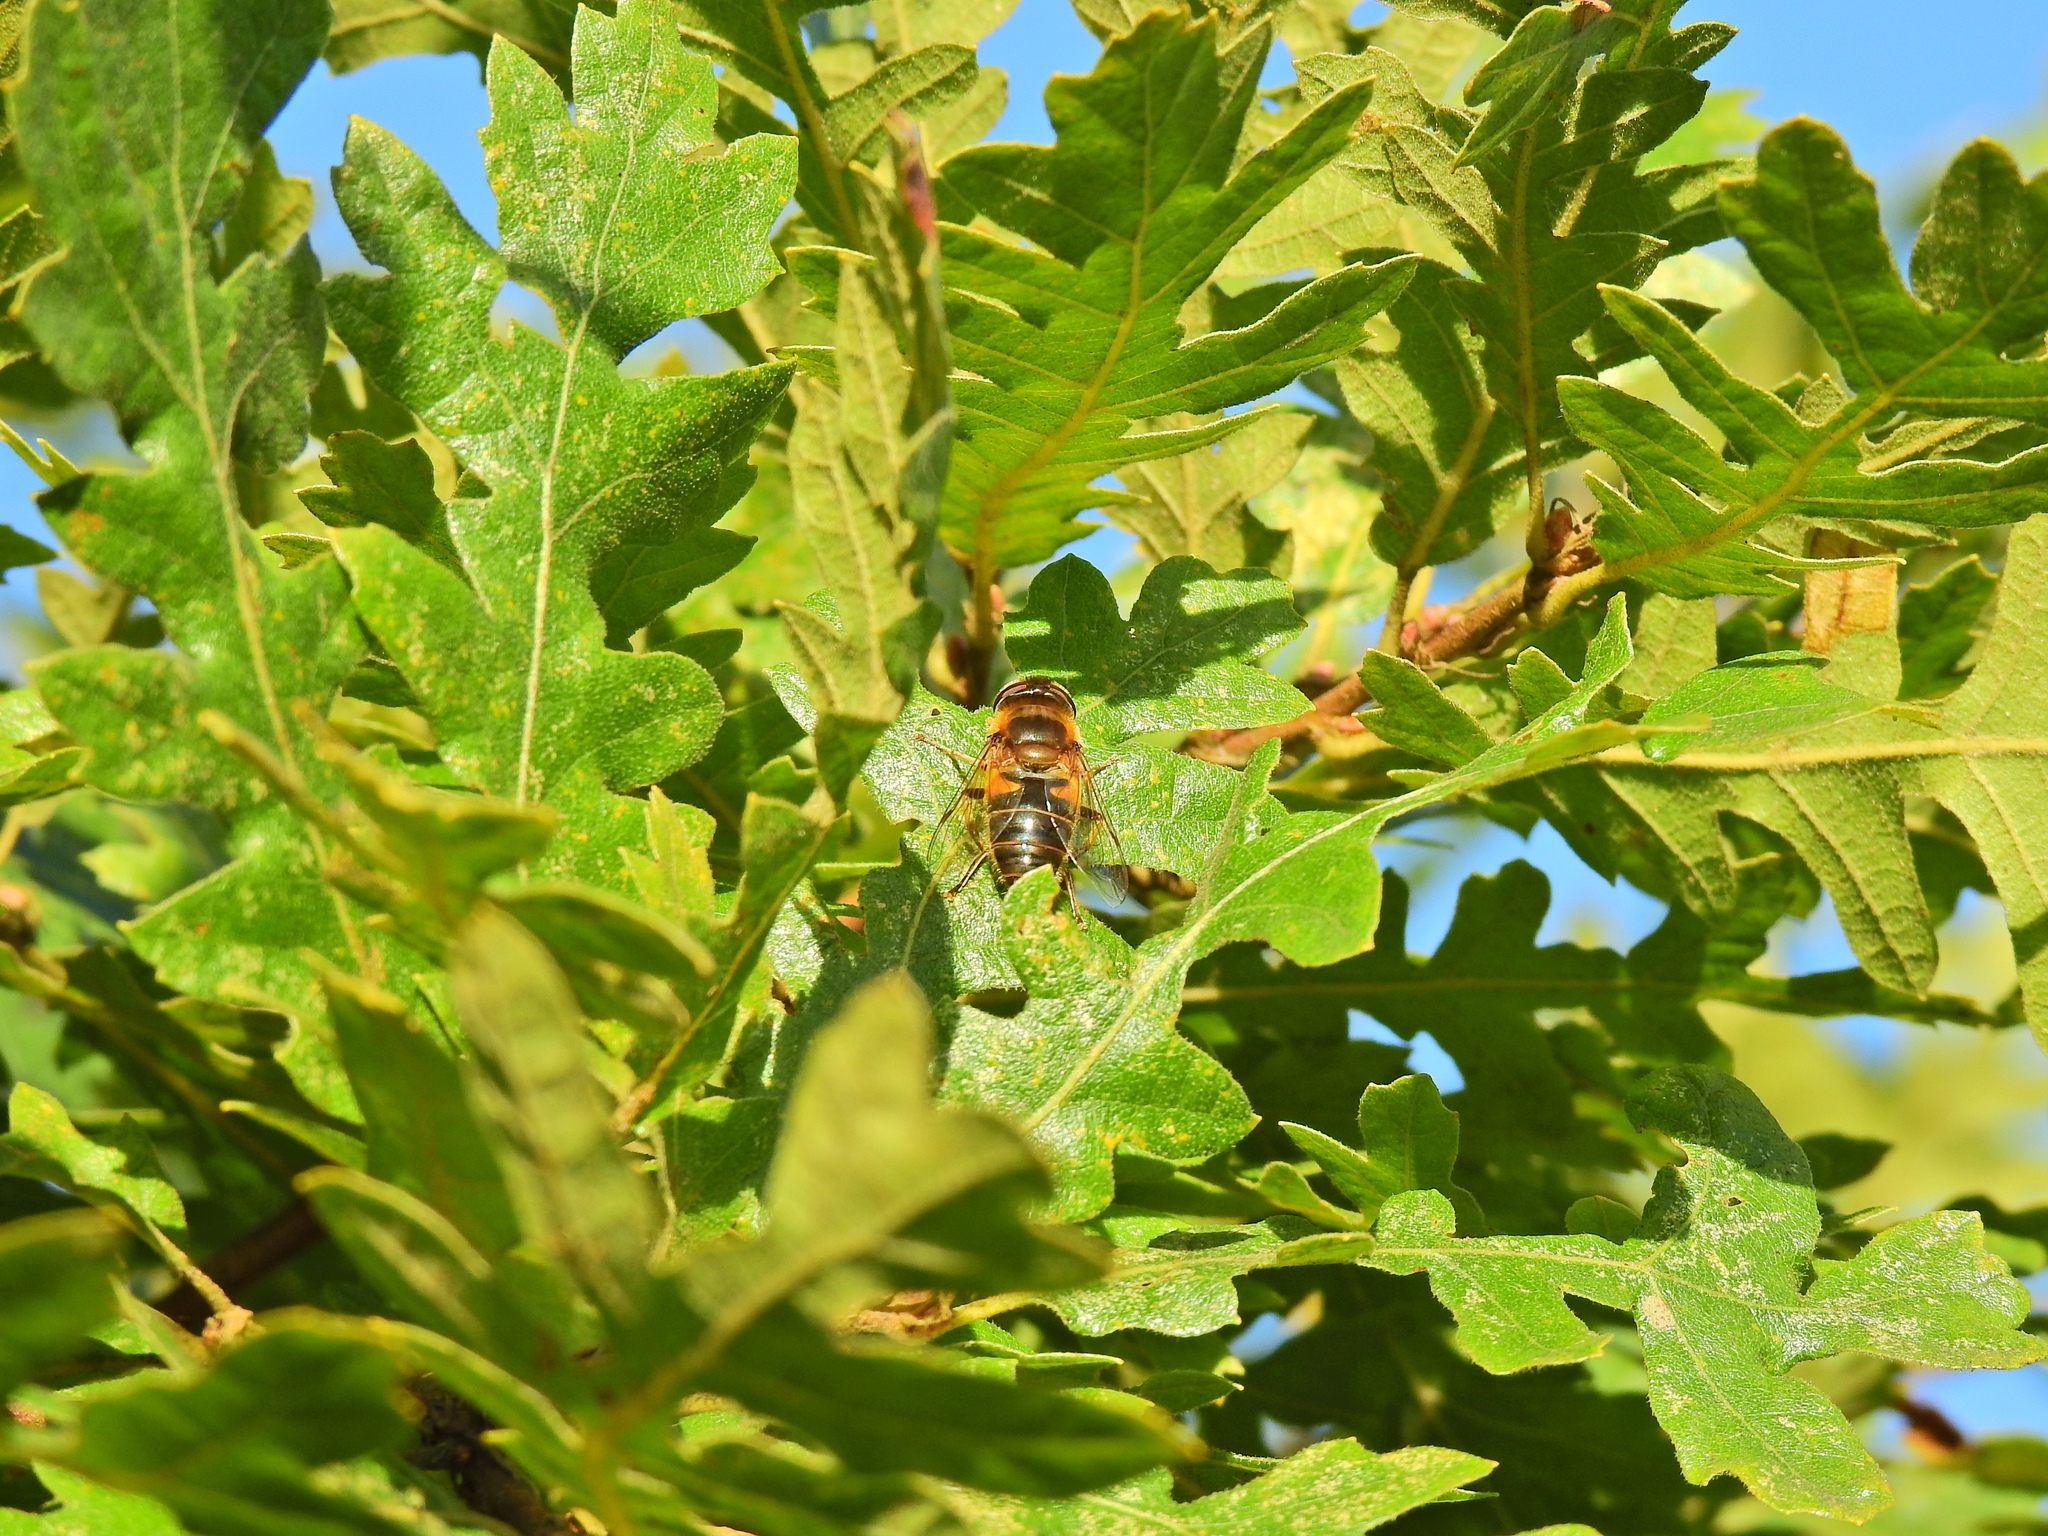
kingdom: Animalia
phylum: Arthropoda
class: Insecta
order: Diptera
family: Syrphidae
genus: Eristalis
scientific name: Eristalis pertinax
